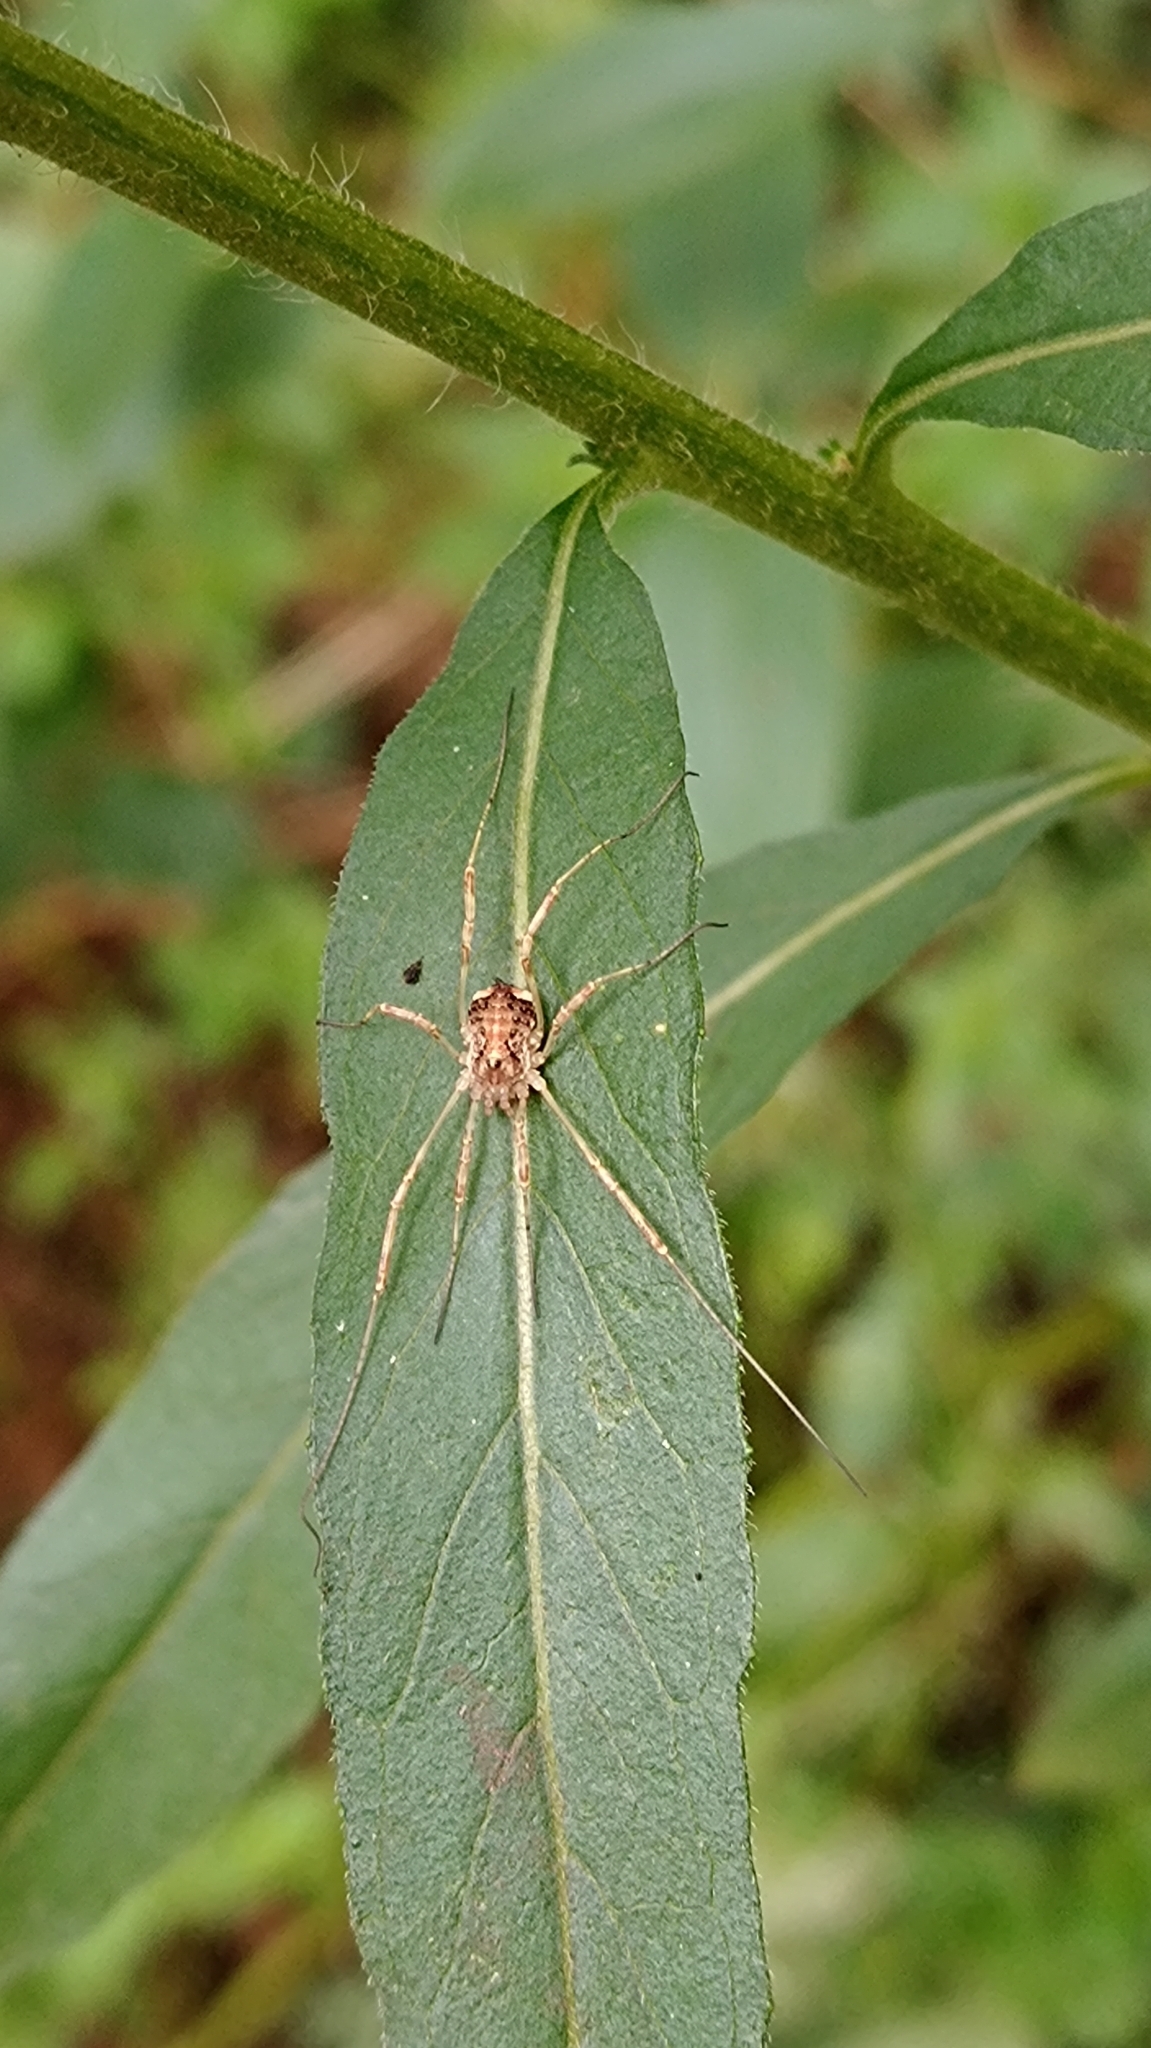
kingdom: Animalia
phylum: Arthropoda
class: Arachnida
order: Opiliones
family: Phalangiidae
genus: Paroligolophus
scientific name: Paroligolophus agrestis
